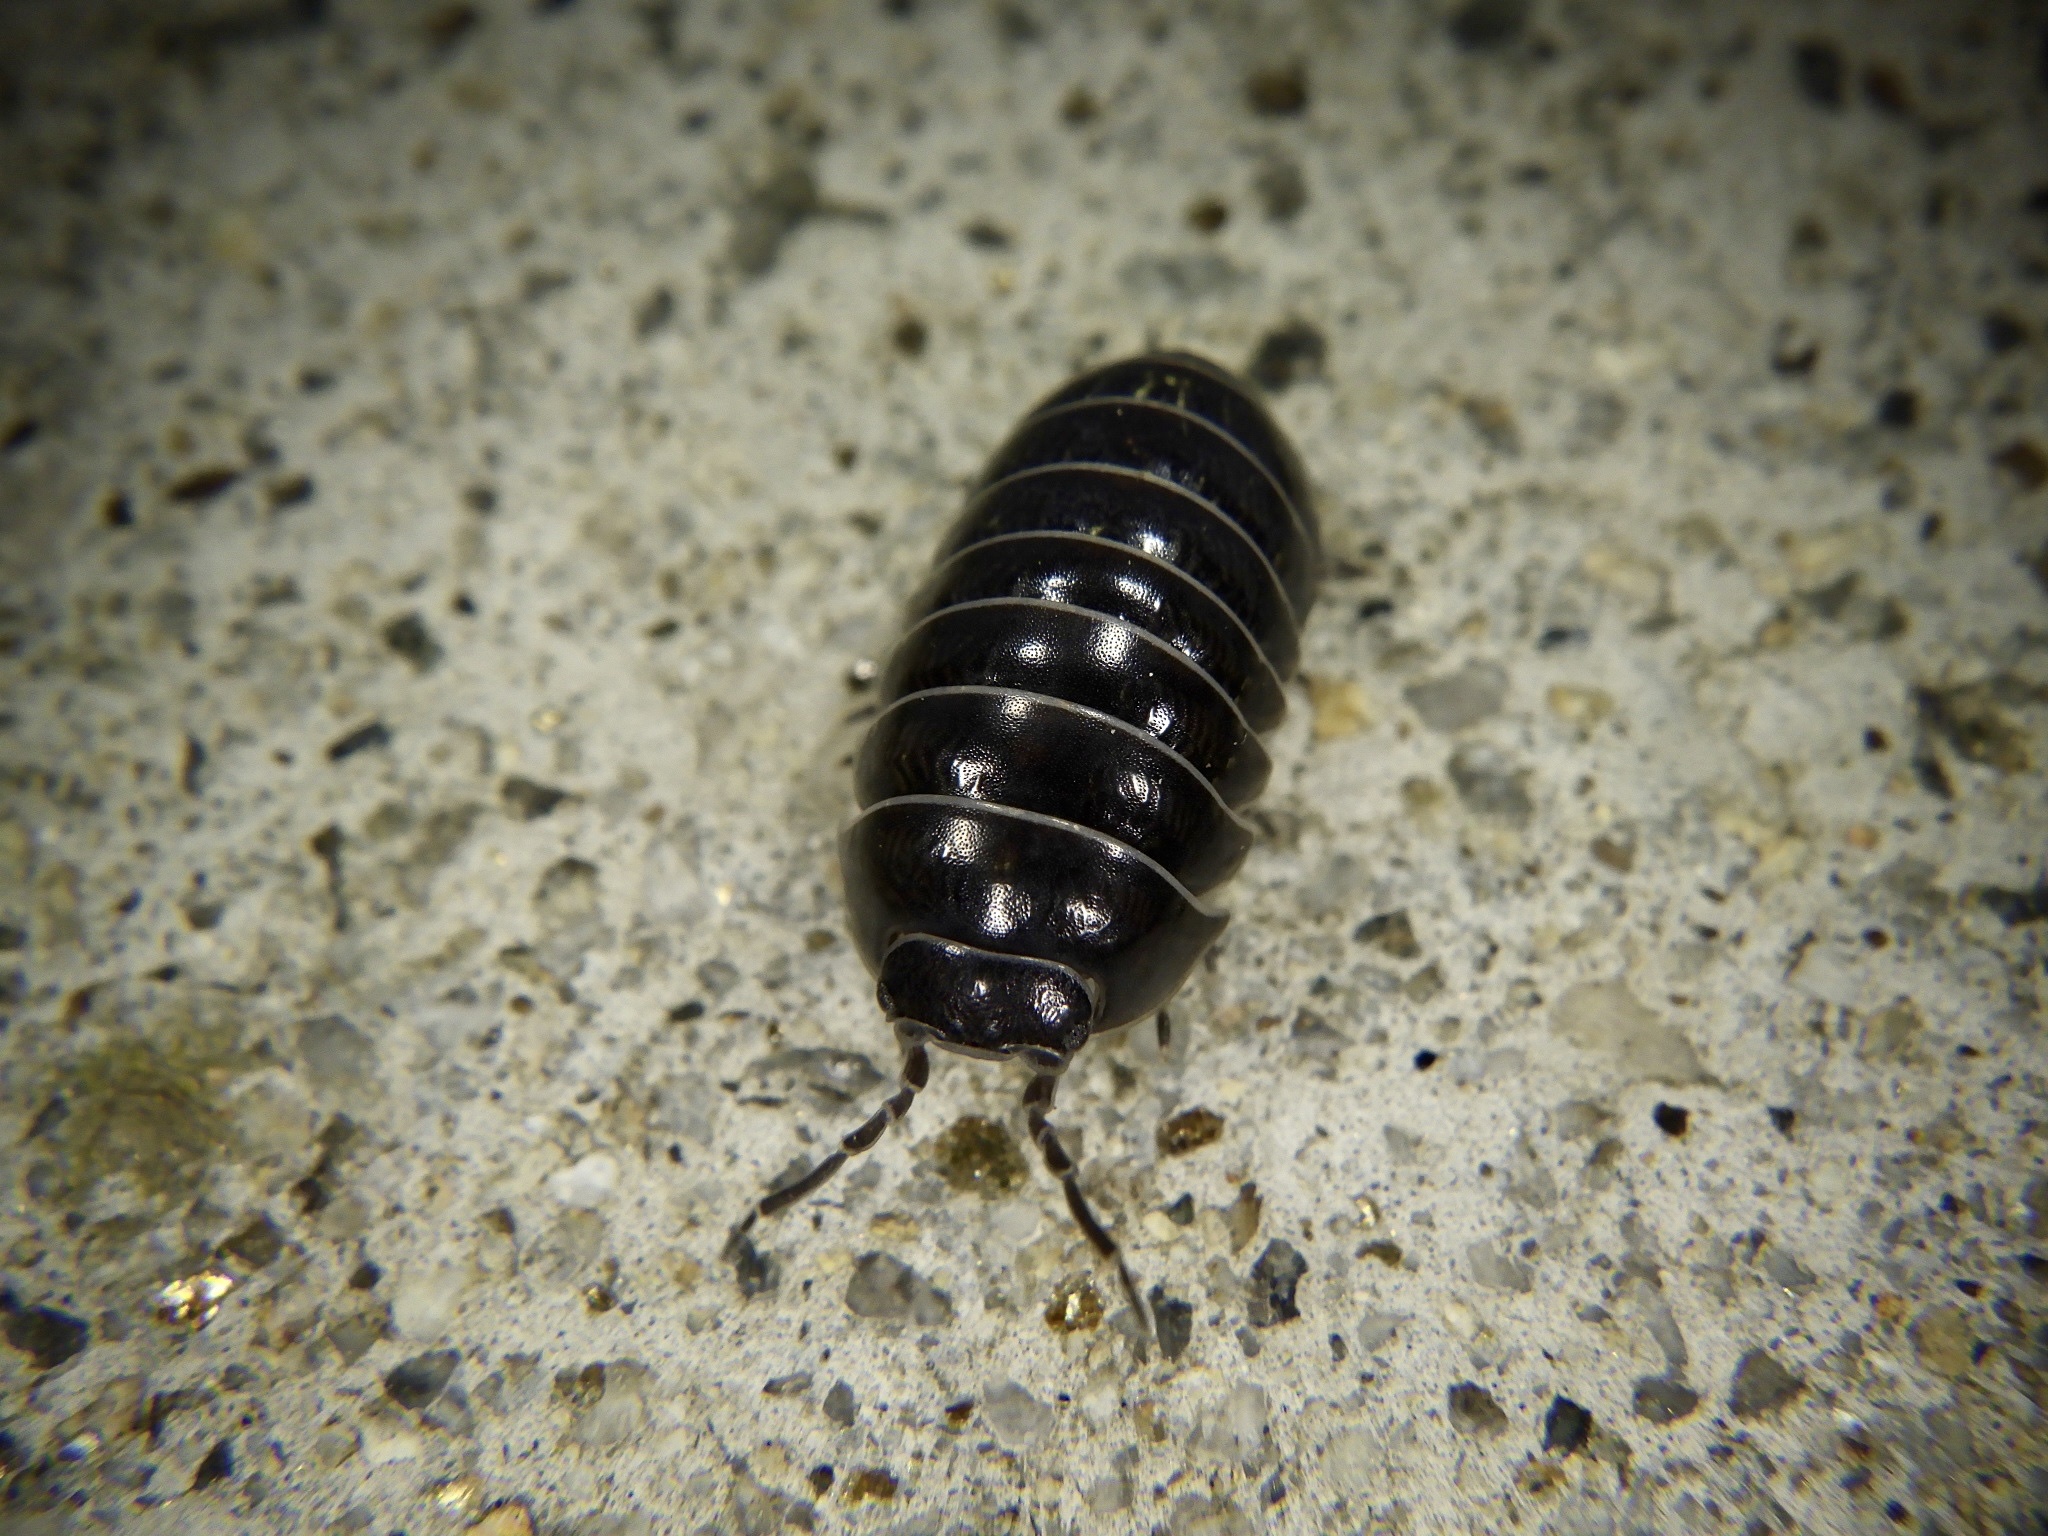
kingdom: Animalia
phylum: Arthropoda
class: Malacostraca
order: Isopoda
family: Armadillidiidae
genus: Armadillidium
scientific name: Armadillidium vulgare
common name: Common pill woodlouse
